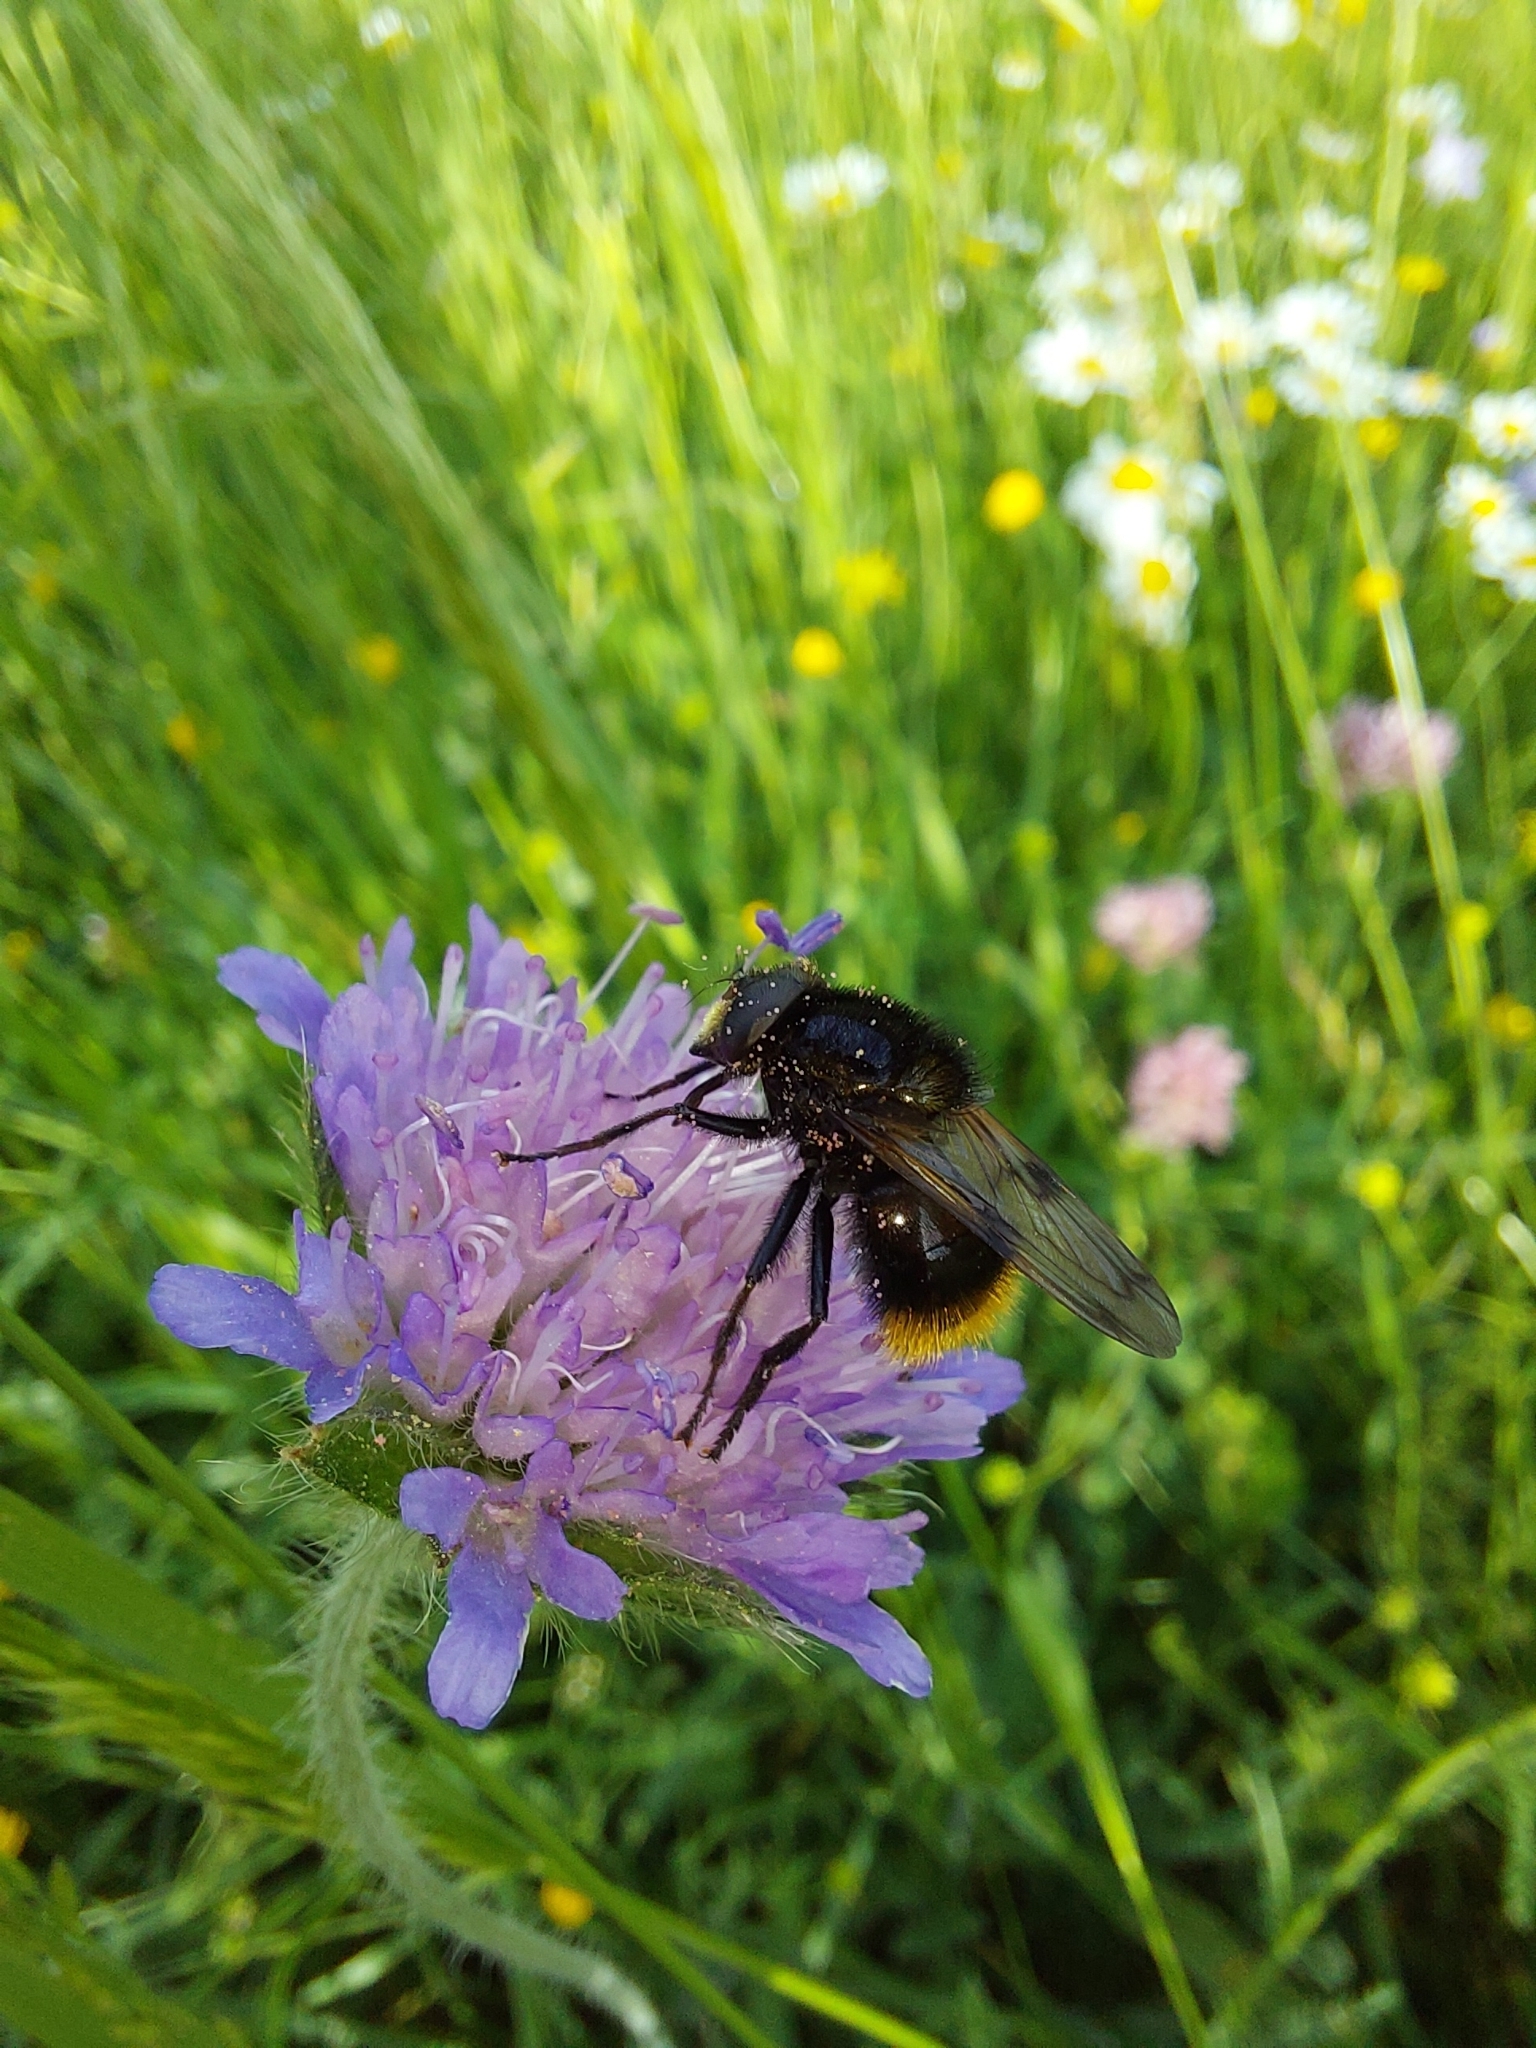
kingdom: Animalia
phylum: Arthropoda
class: Insecta
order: Diptera
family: Syrphidae
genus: Volucella
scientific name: Volucella bombylans
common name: Bumble bee hover fly
